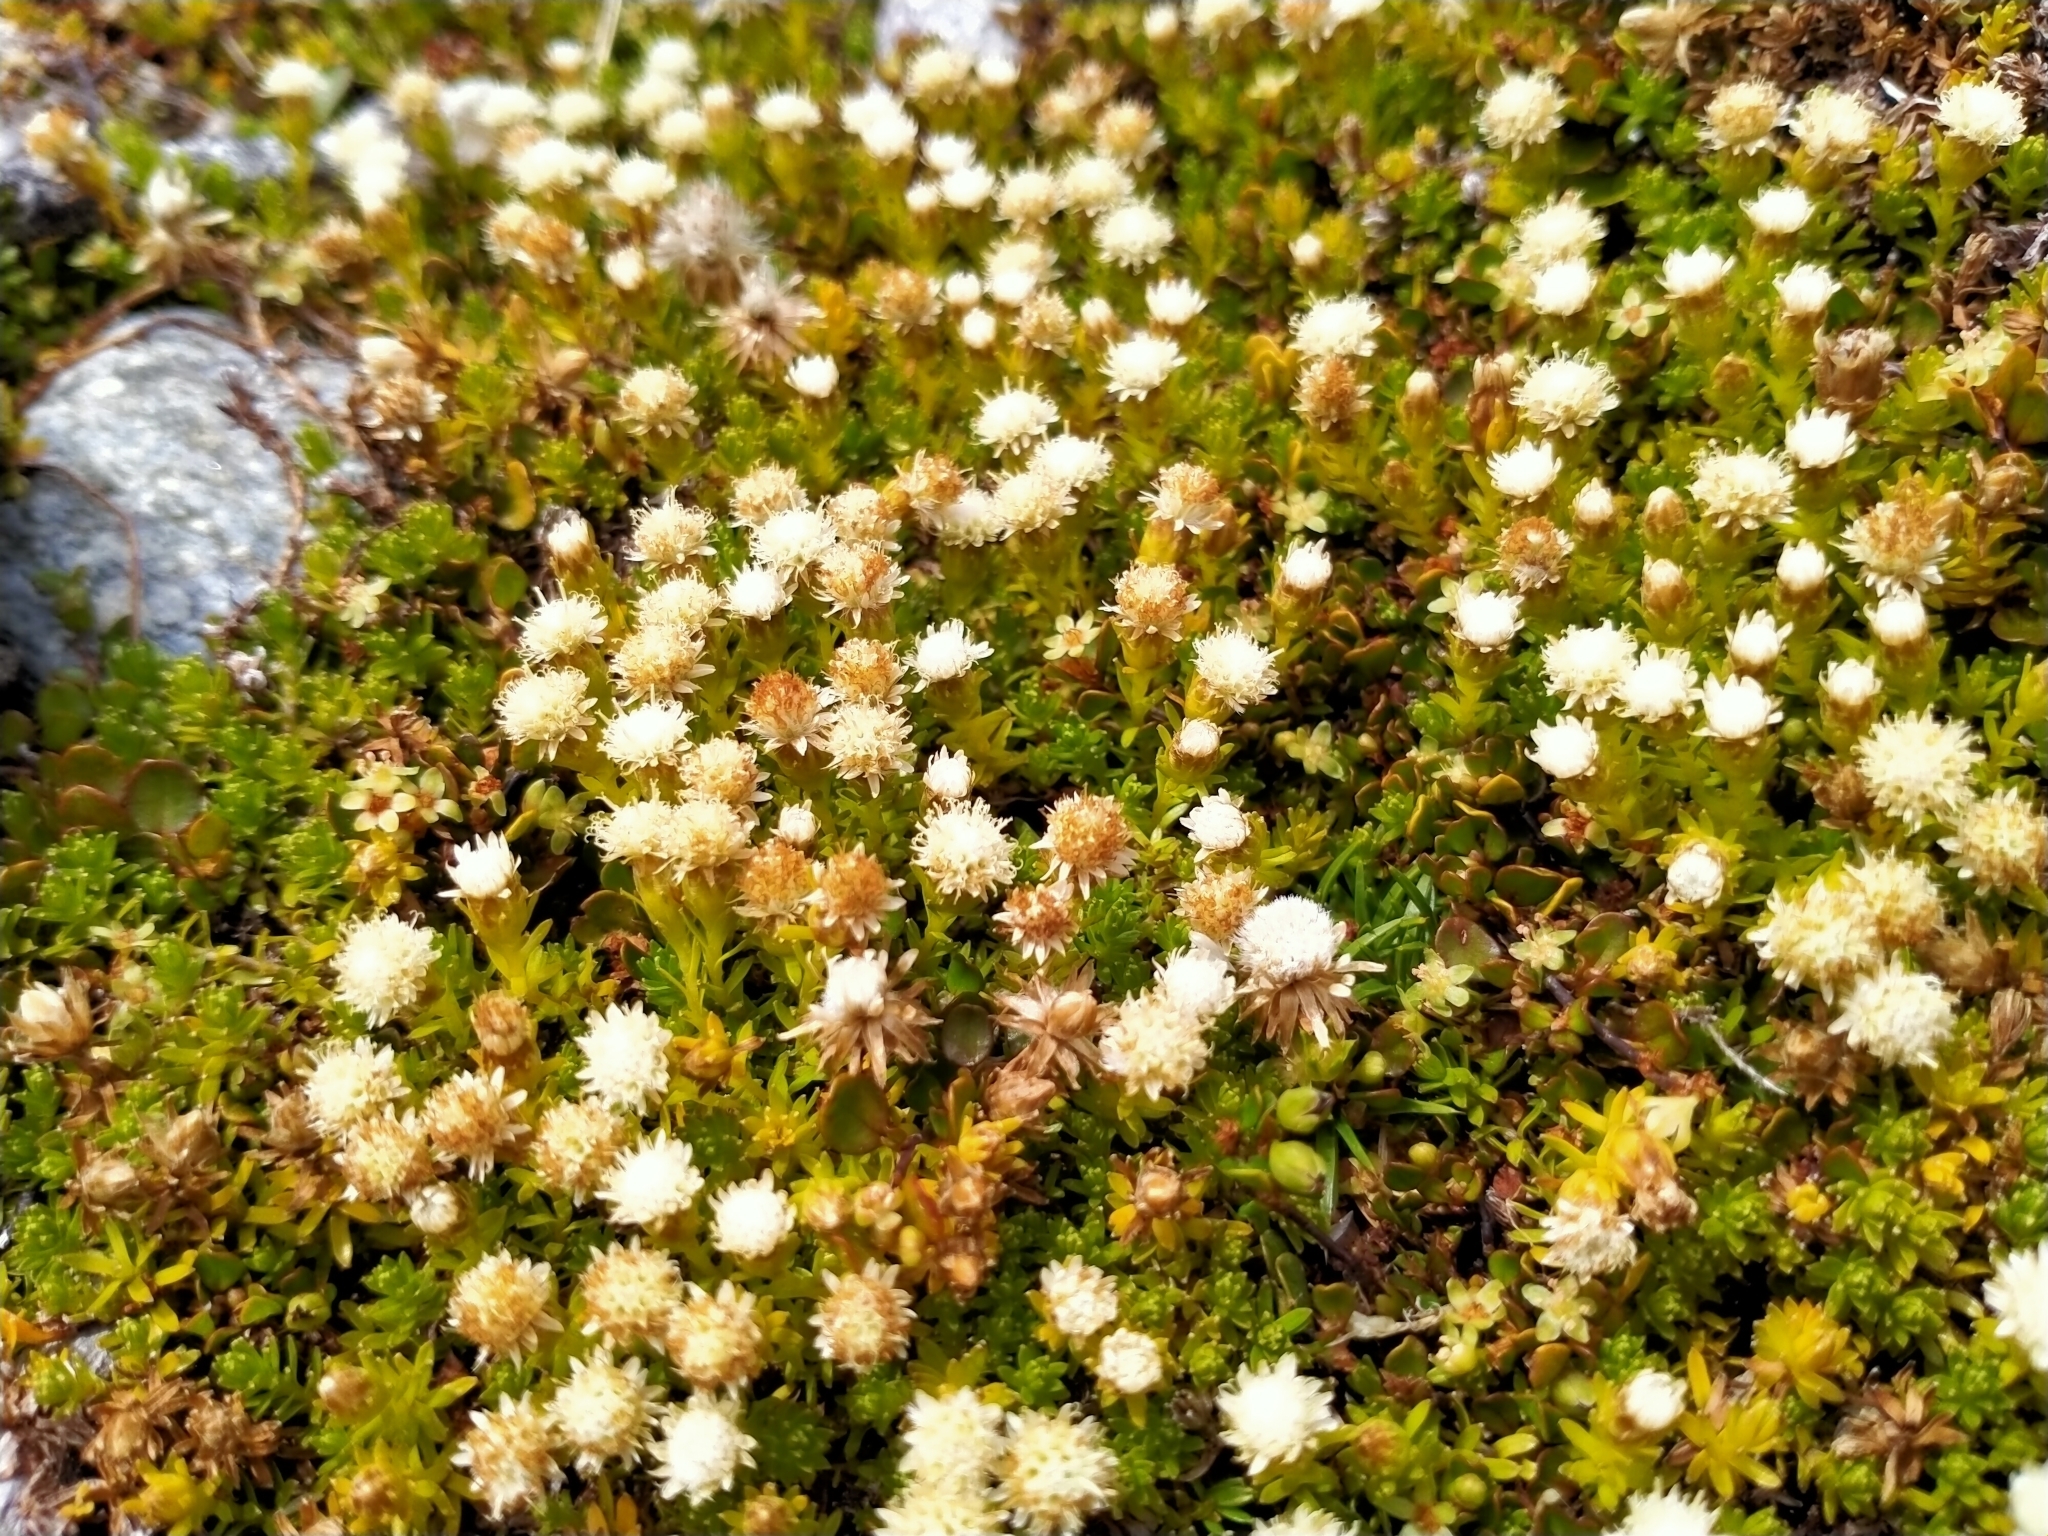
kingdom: Plantae
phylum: Tracheophyta
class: Magnoliopsida
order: Asterales
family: Asteraceae
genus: Raoulia
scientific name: Raoulia glabra
